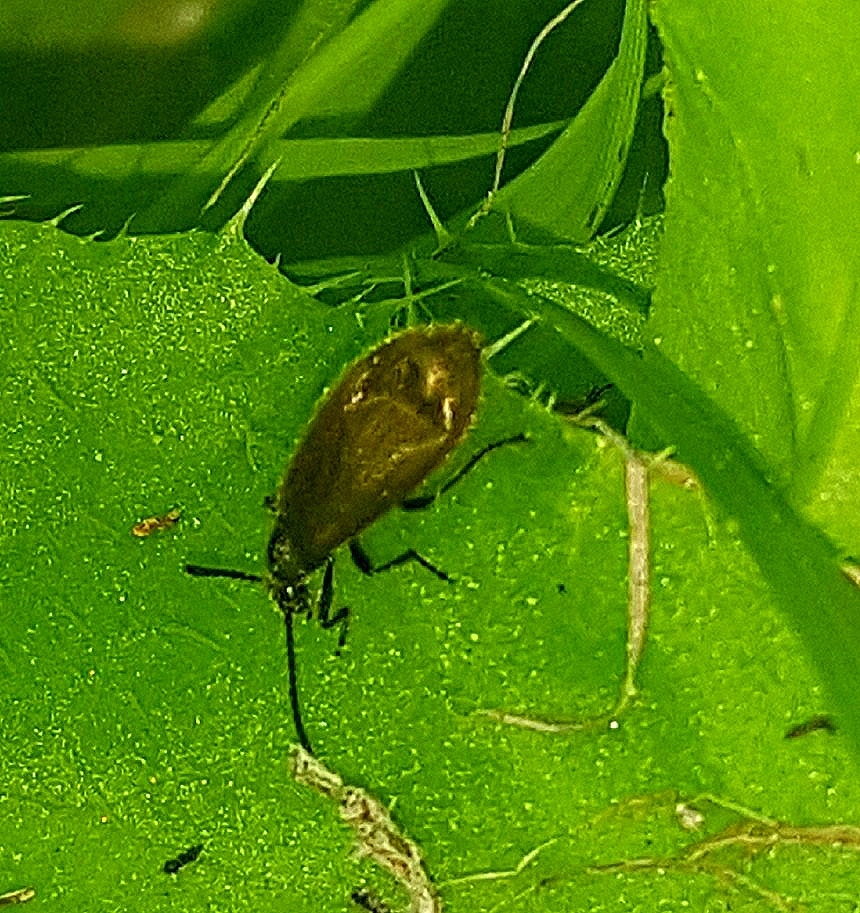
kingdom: Animalia
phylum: Arthropoda
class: Insecta
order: Coleoptera
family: Tenebrionidae
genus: Lagria
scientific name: Lagria hirta
